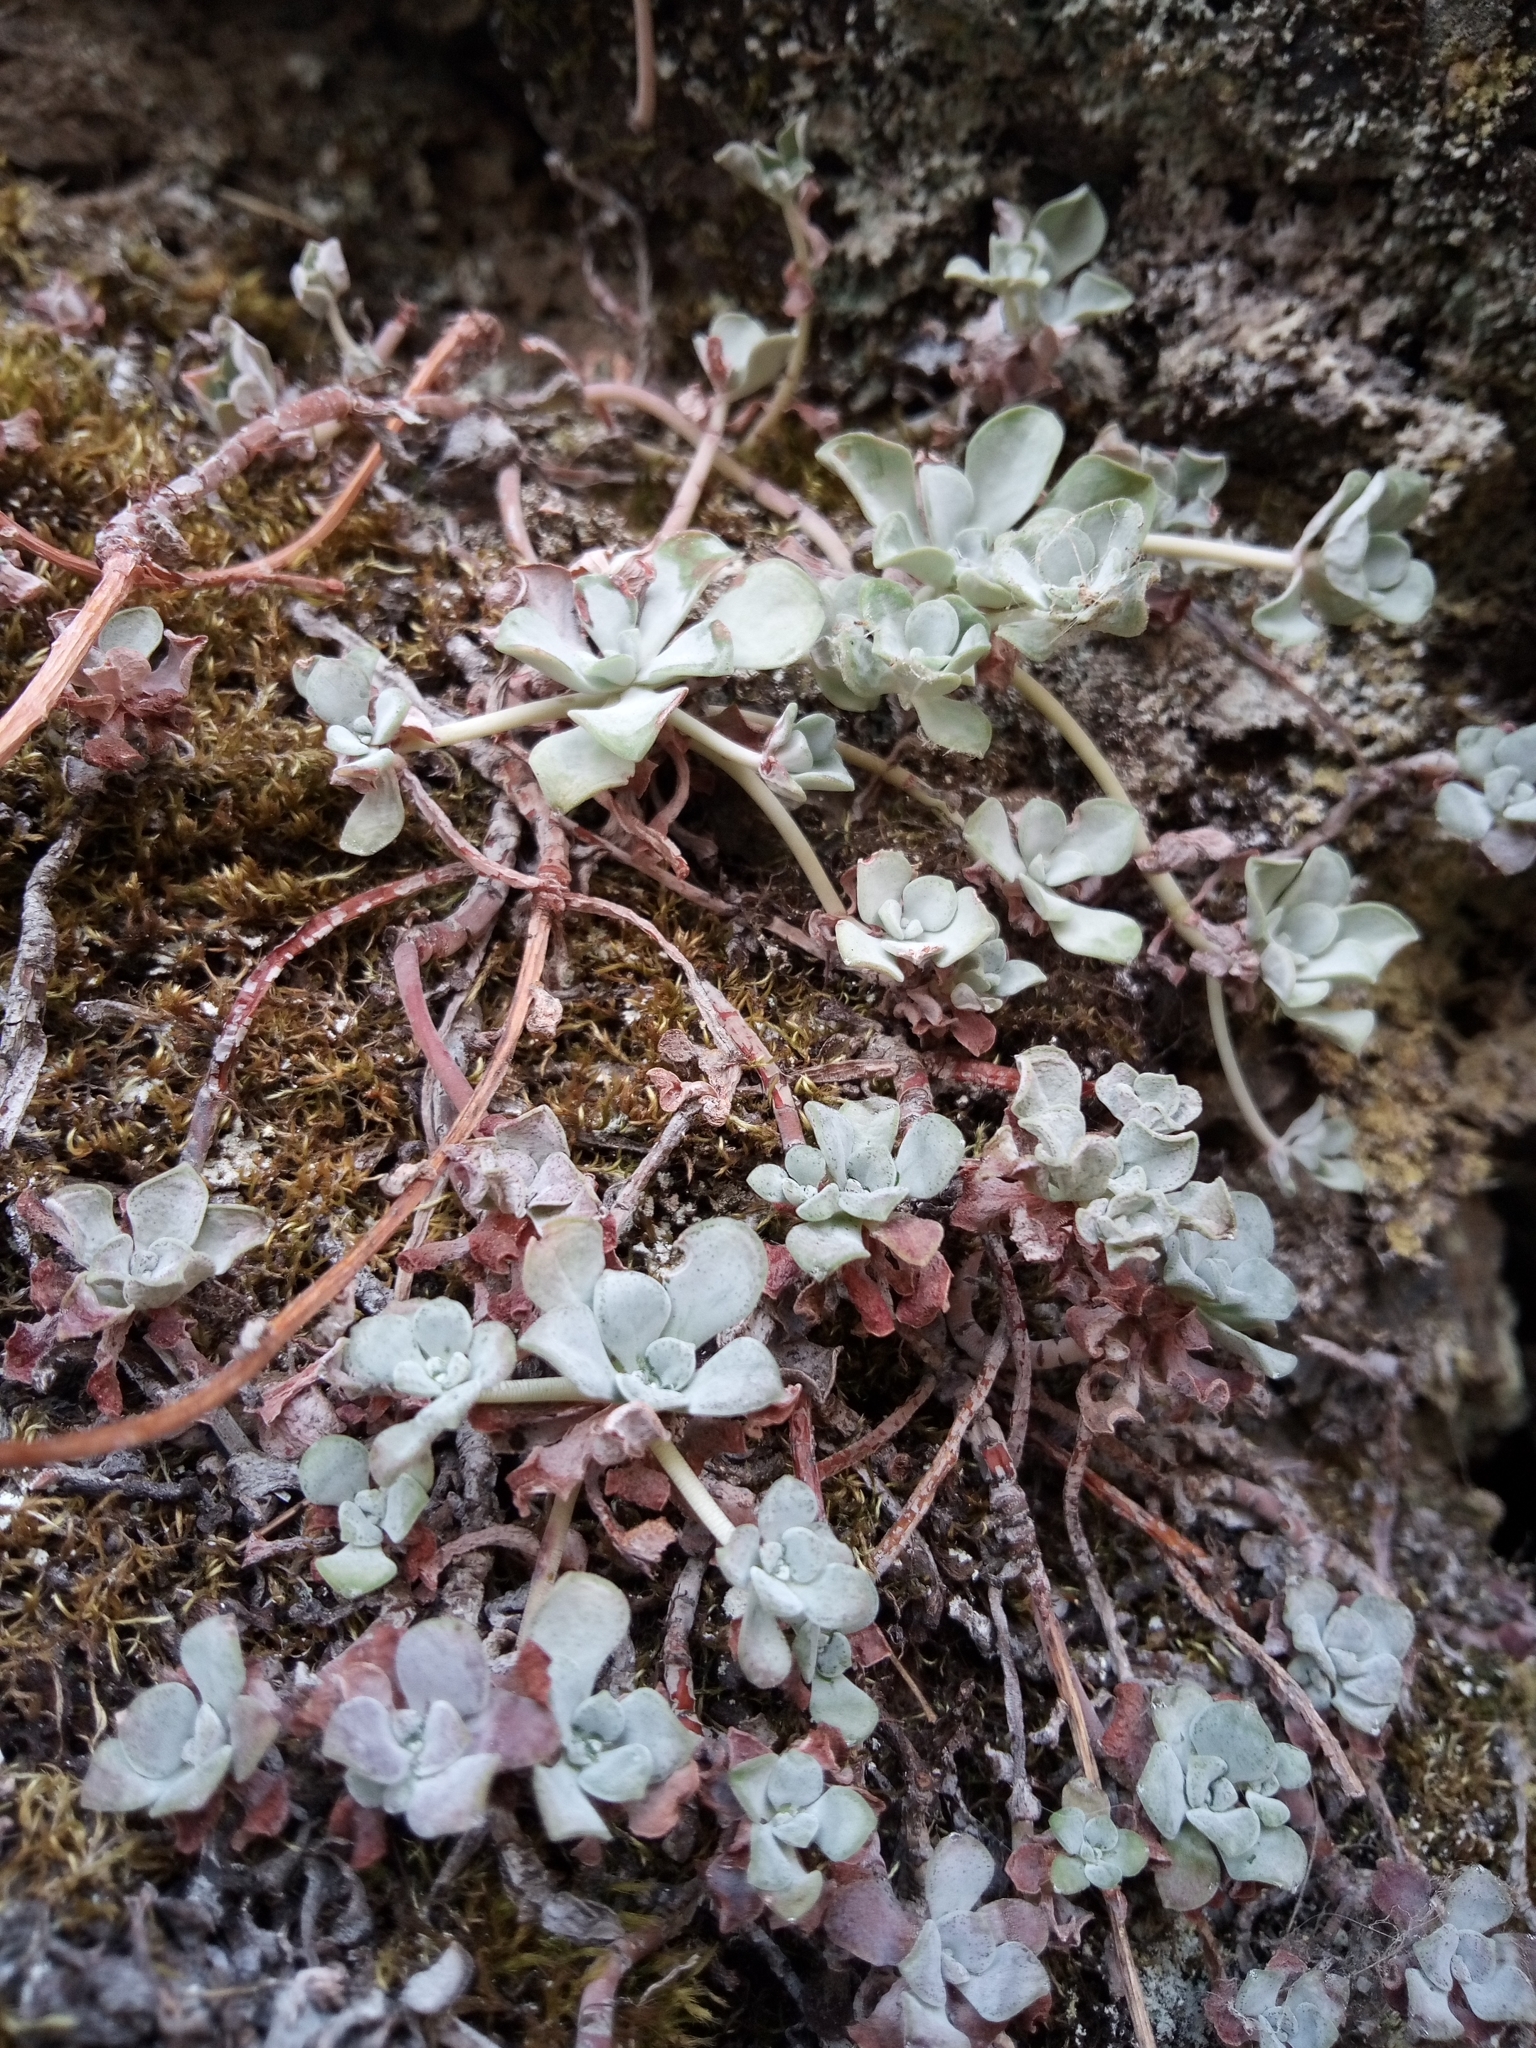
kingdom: Plantae
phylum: Tracheophyta
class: Magnoliopsida
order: Saxifragales
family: Crassulaceae
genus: Sedum
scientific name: Sedum spathulifolium
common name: Colorado stonecrop
